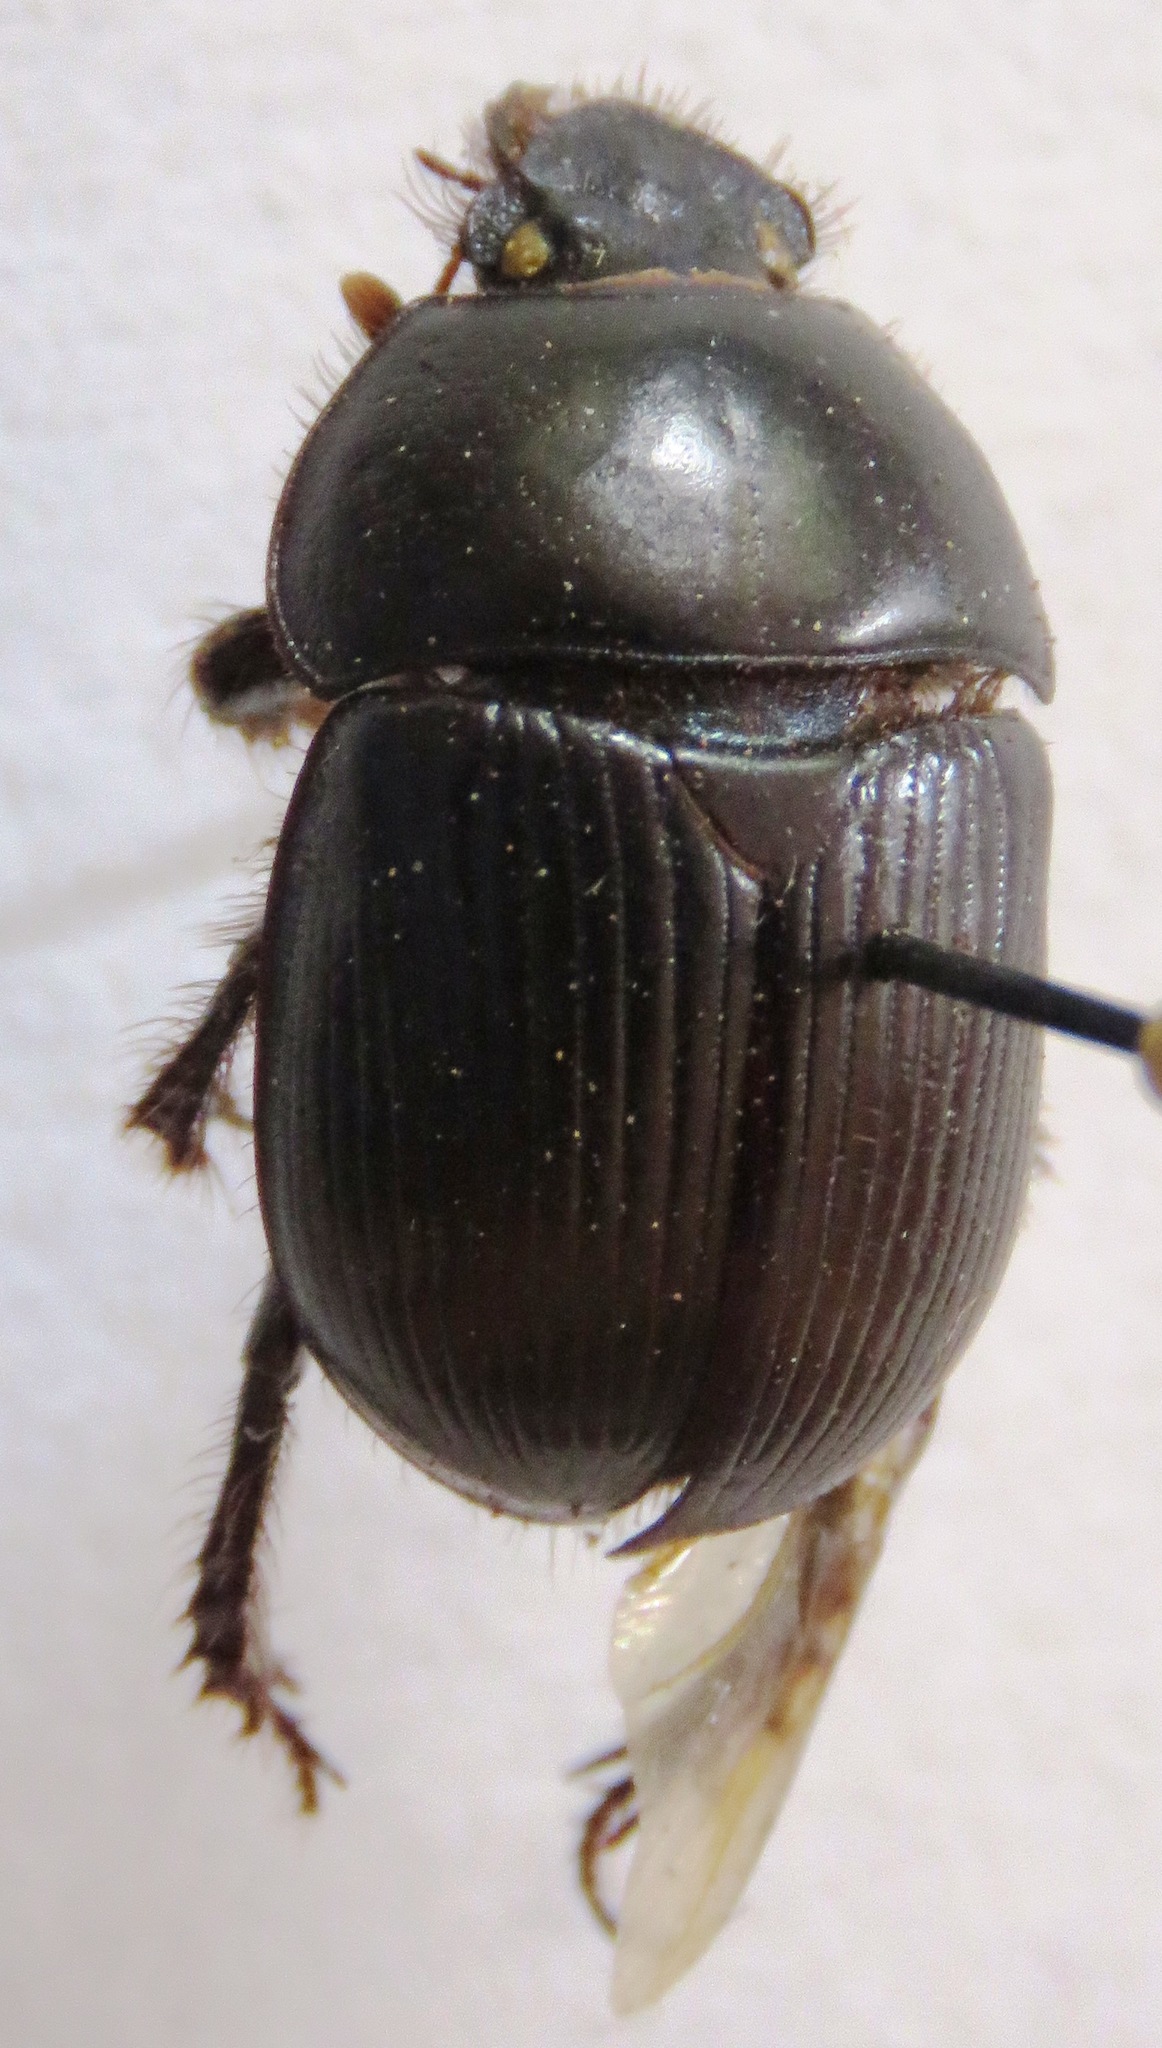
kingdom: Animalia
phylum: Arthropoda
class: Insecta
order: Coleoptera
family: Geotrupidae
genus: Geotrupes
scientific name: Geotrupes splendidus
